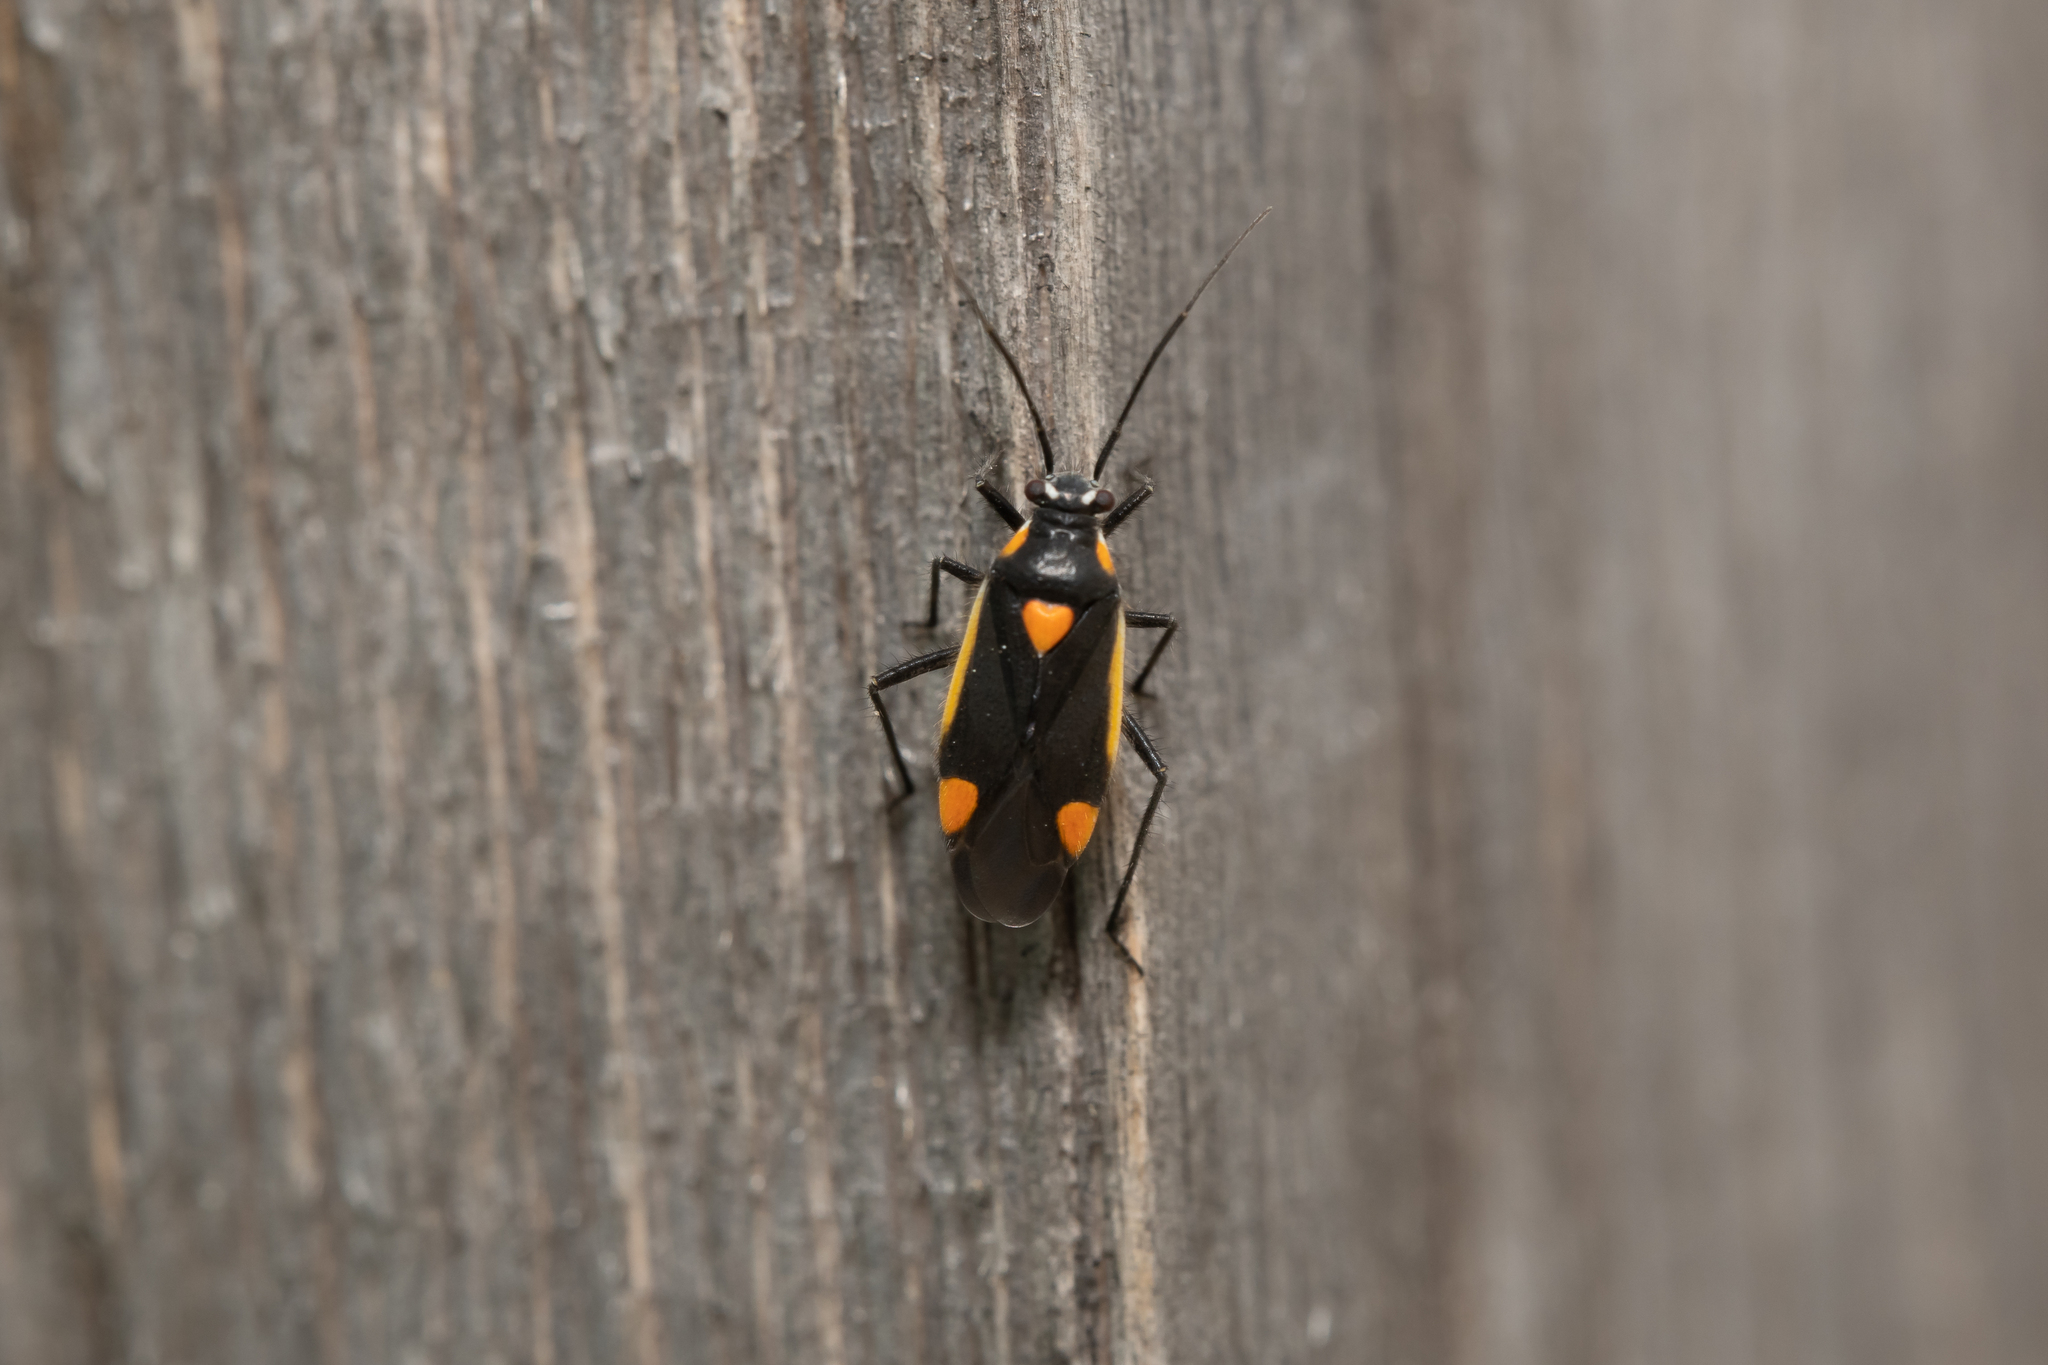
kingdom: Animalia
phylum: Arthropoda
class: Insecta
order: Hemiptera
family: Miridae
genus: Capsodes
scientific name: Capsodes gothicus
